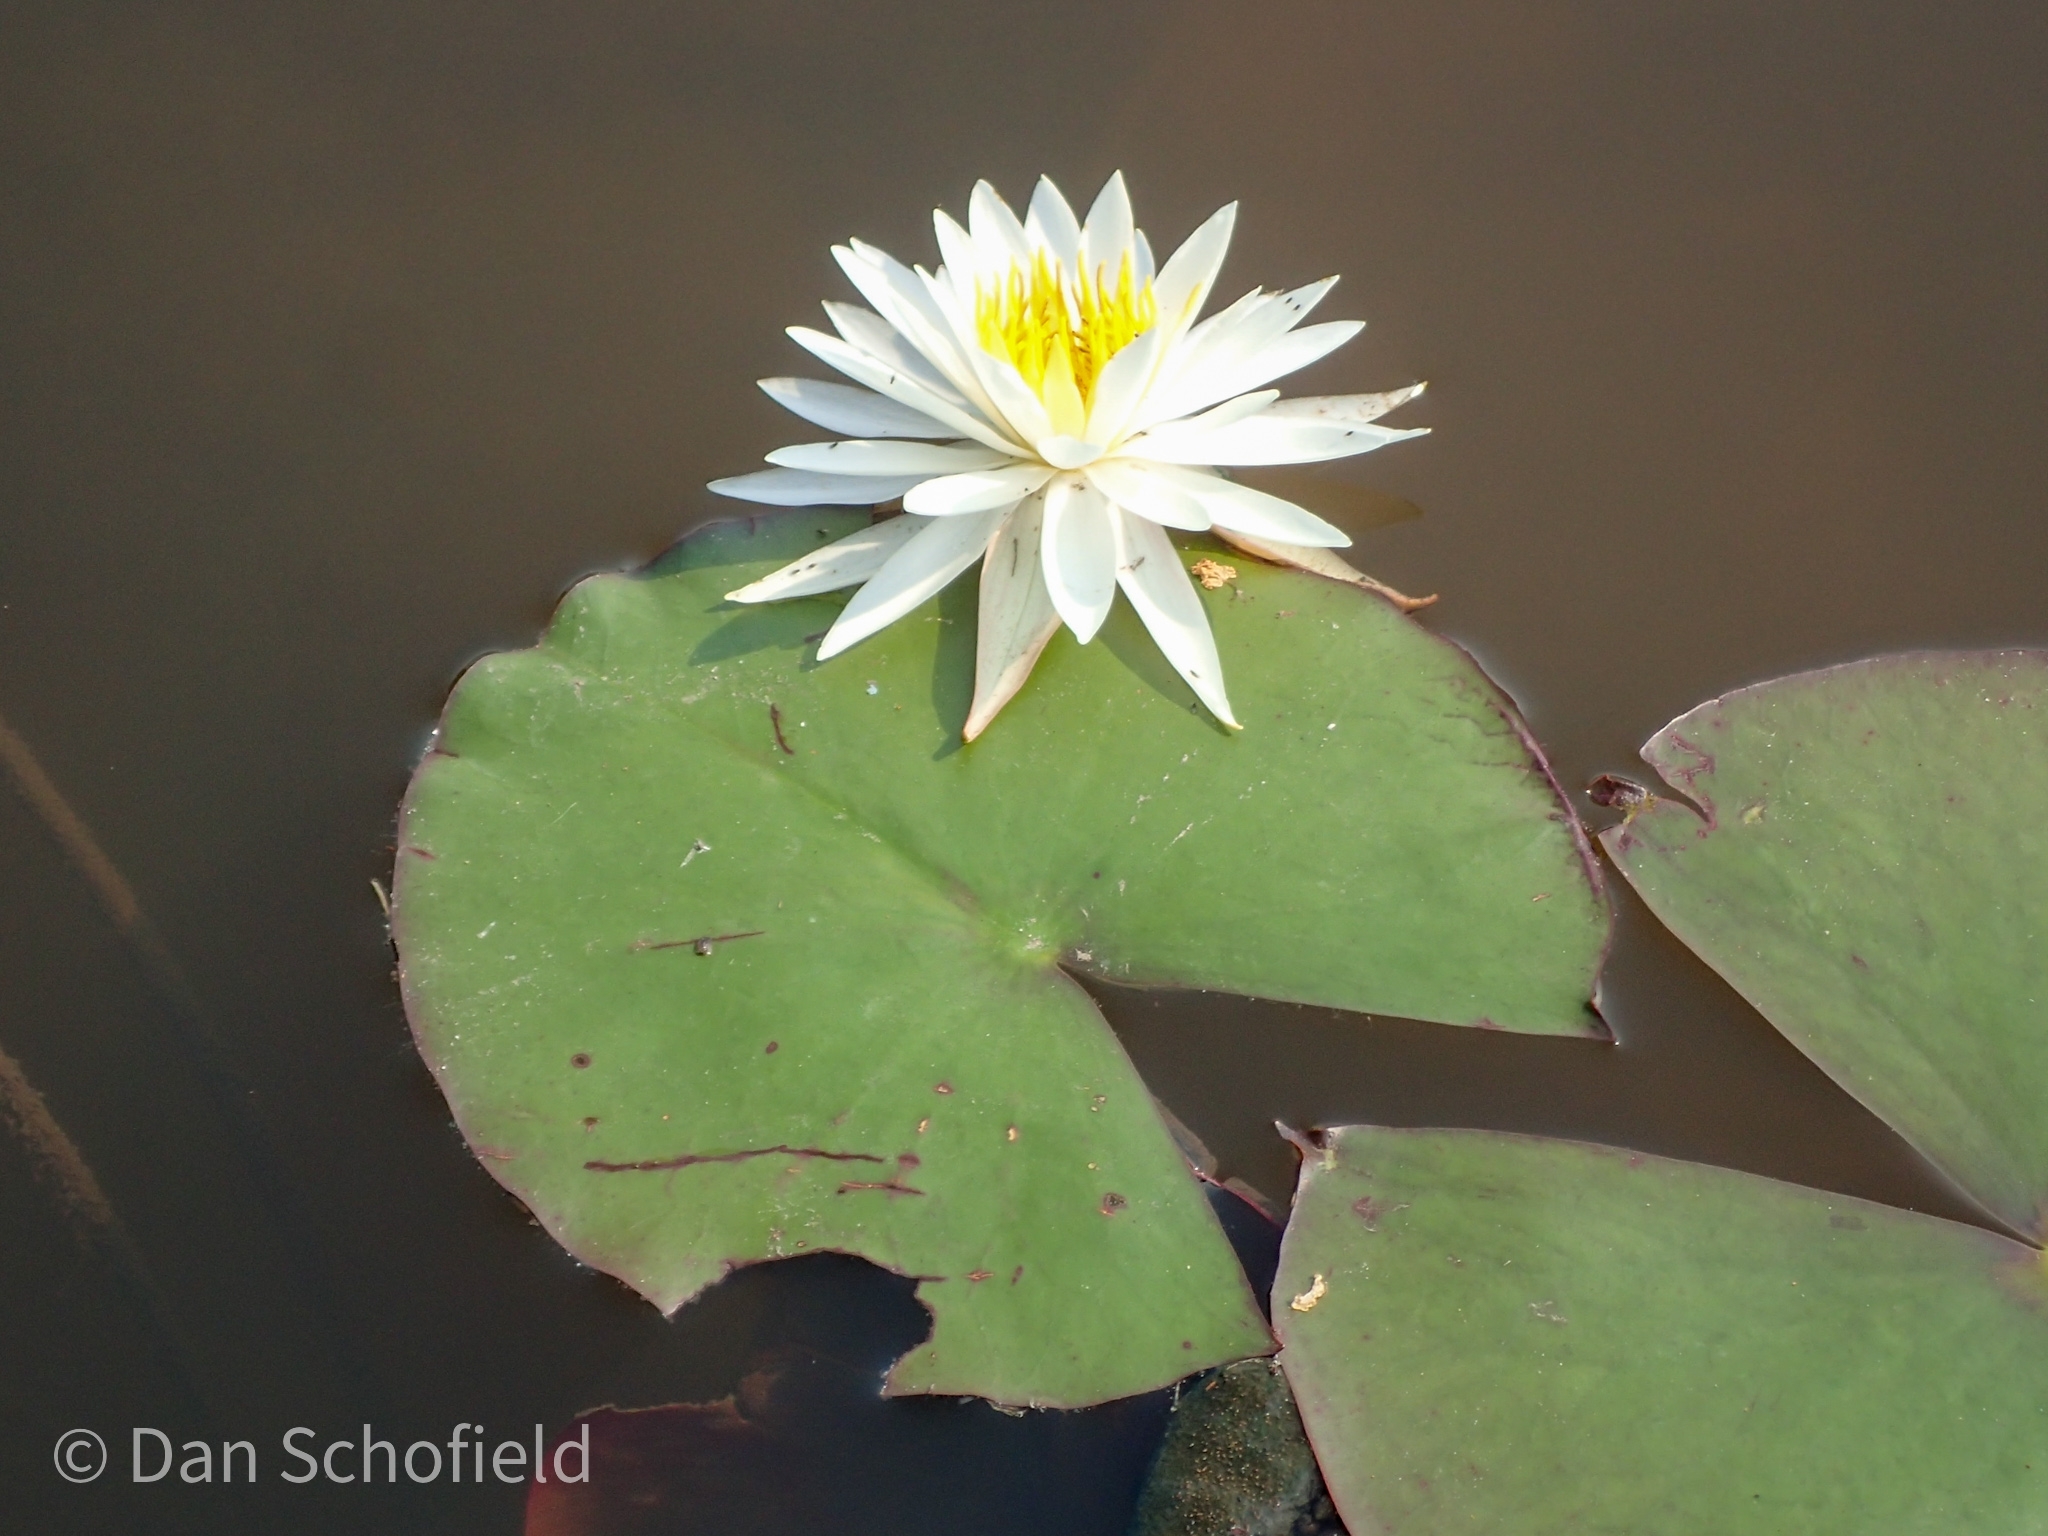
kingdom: Plantae
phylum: Tracheophyta
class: Magnoliopsida
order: Nymphaeales
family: Nymphaeaceae
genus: Nymphaea
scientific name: Nymphaea odorata
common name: Fragrant water-lily
